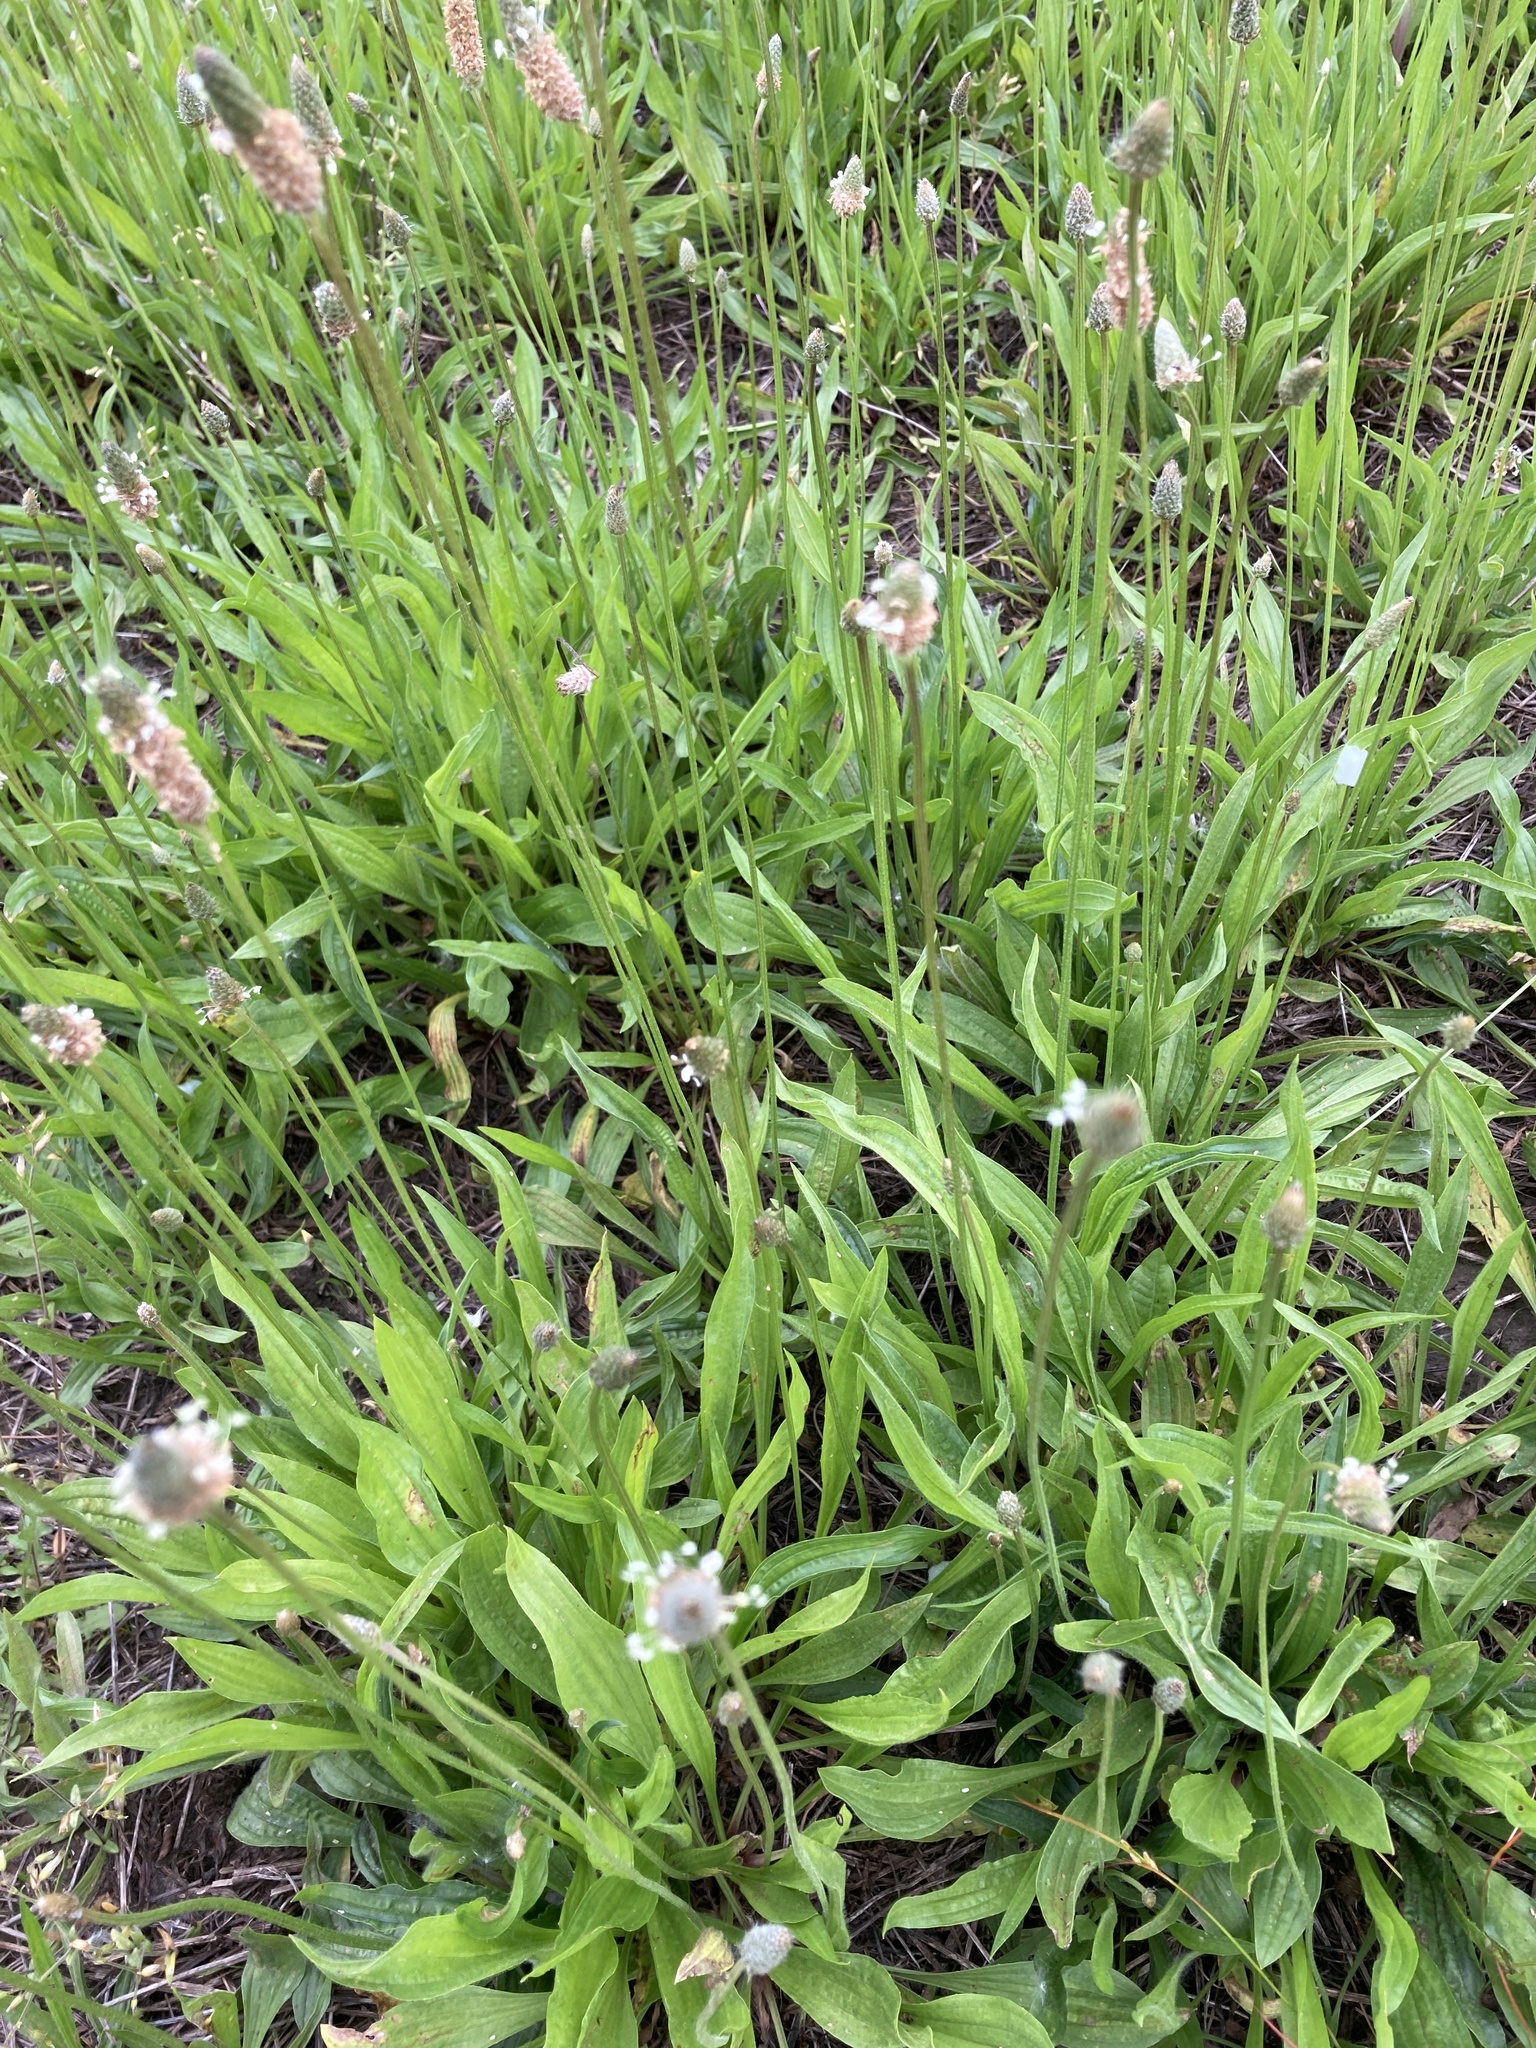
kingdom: Plantae
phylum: Tracheophyta
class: Magnoliopsida
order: Lamiales
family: Plantaginaceae
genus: Plantago
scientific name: Plantago lanceolata
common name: Ribwort plantain
